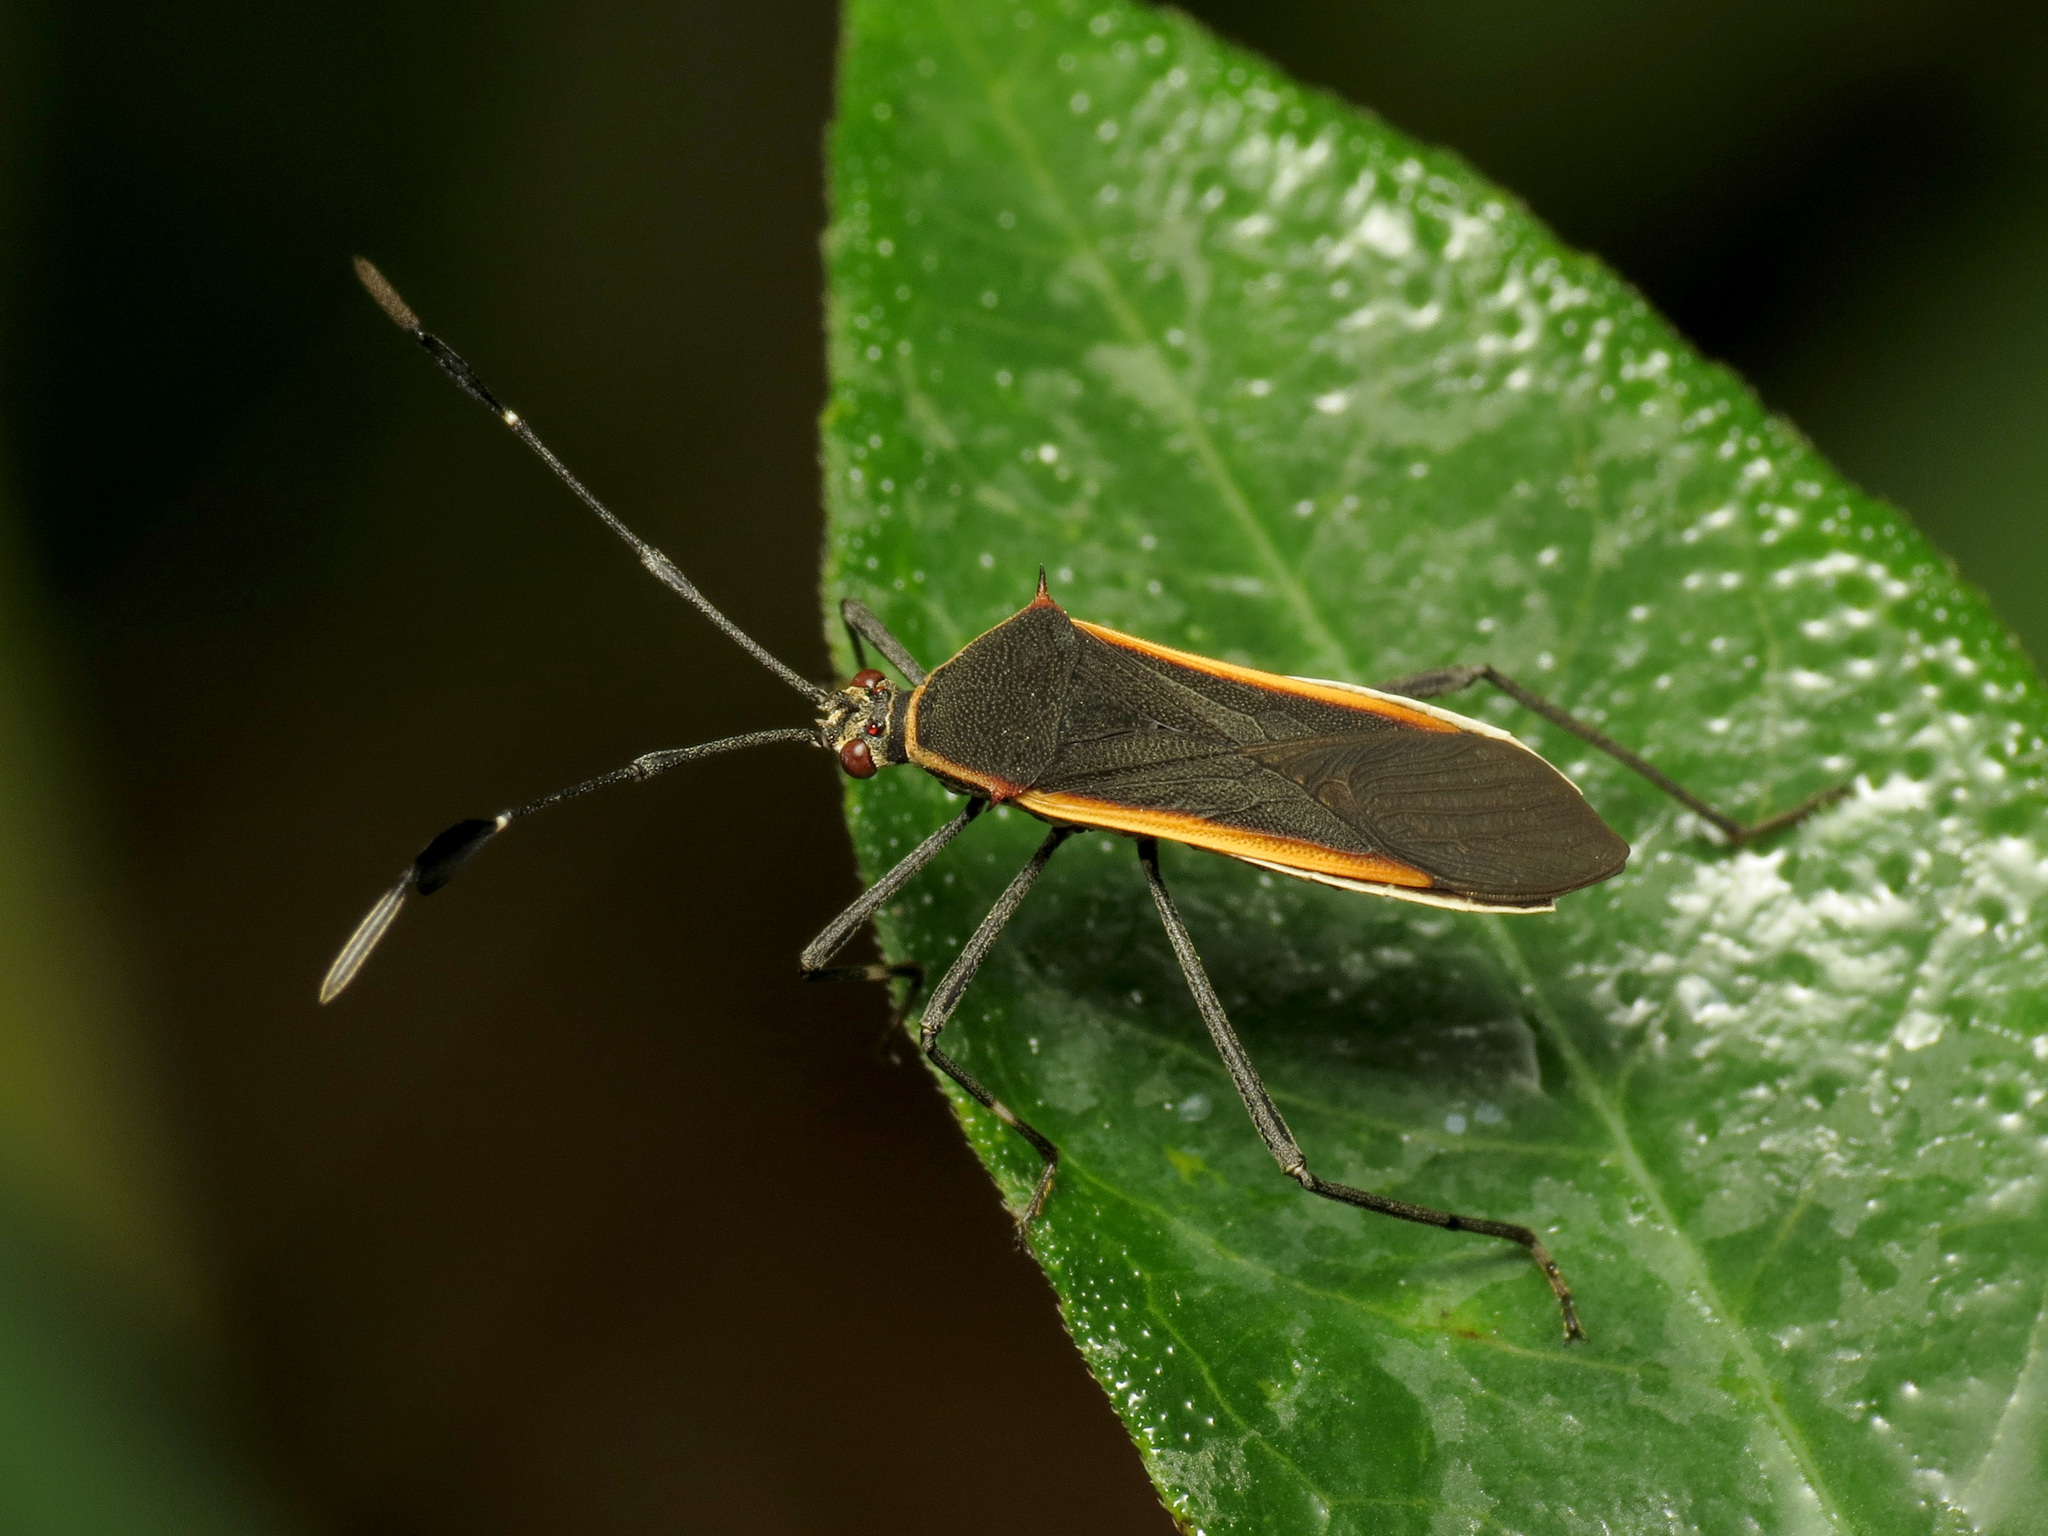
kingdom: Animalia
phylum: Arthropoda
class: Insecta
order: Hemiptera
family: Coreidae
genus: Plapigus
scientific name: Plapigus circumcinctus
